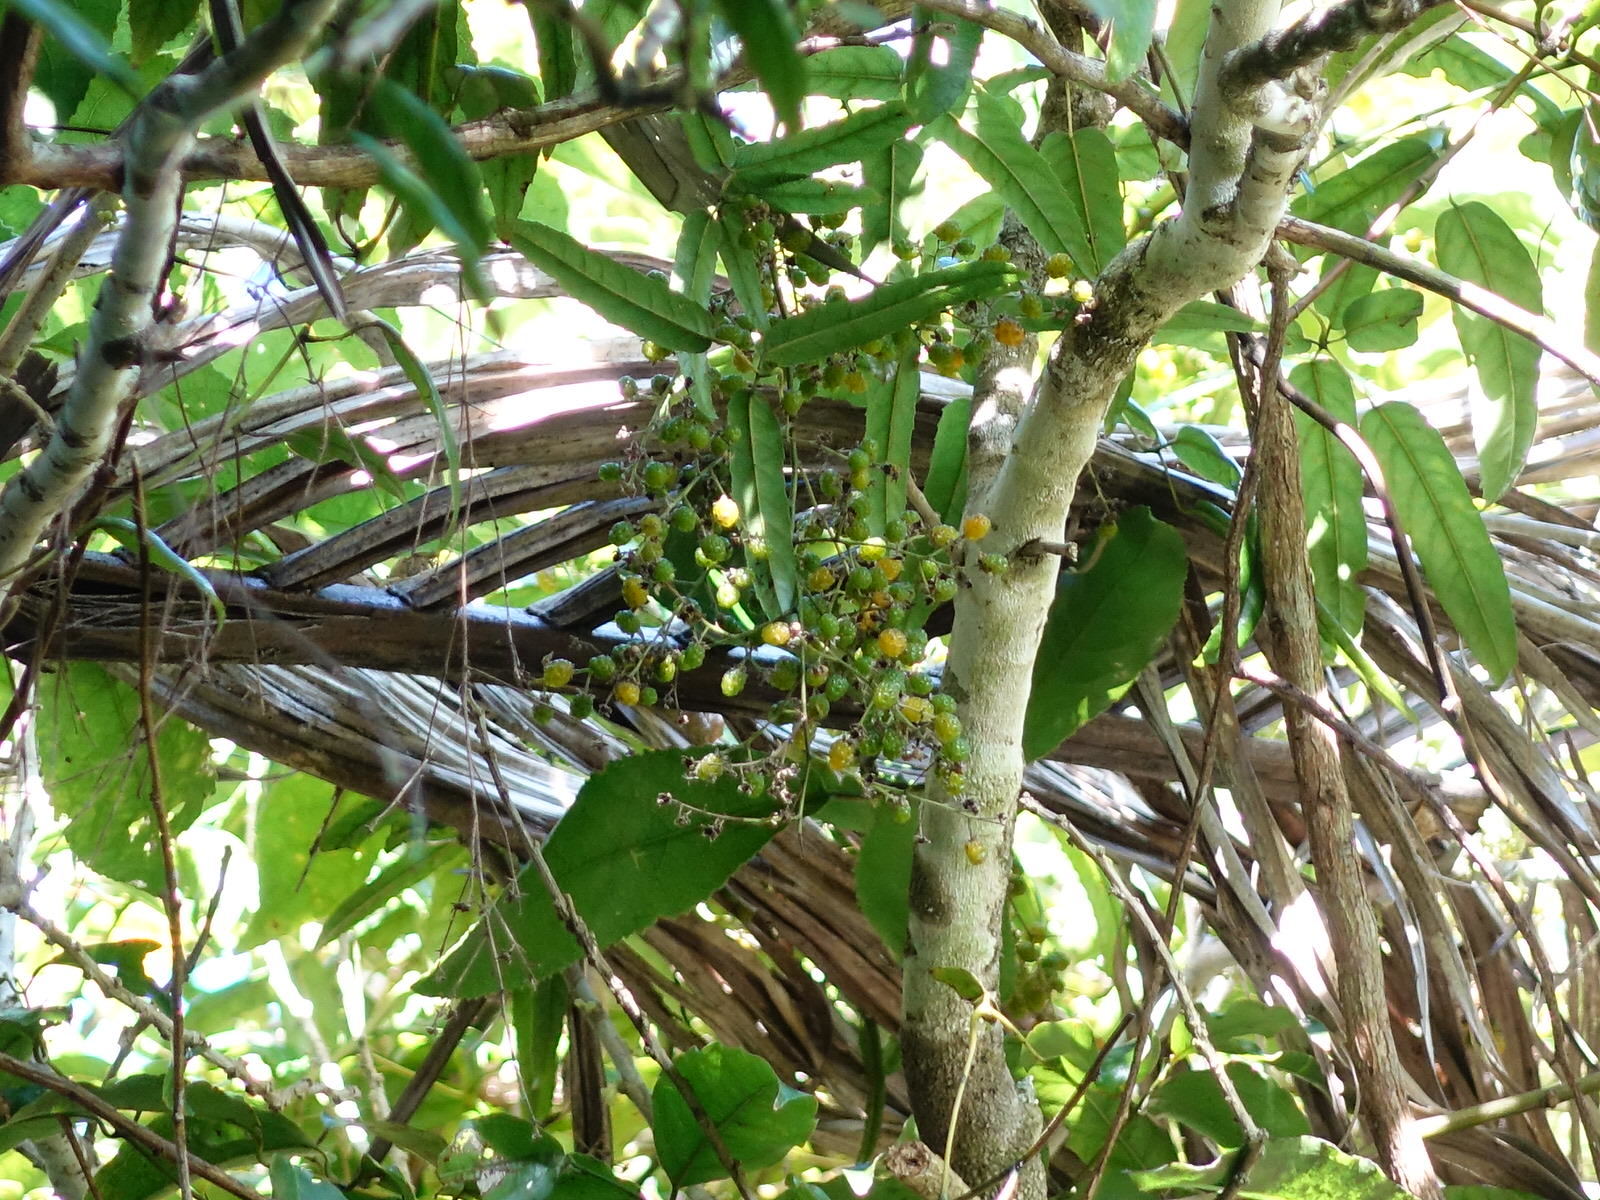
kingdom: Plantae
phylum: Tracheophyta
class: Magnoliopsida
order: Rosales
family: Rosaceae
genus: Rubus
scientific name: Rubus cissoides
